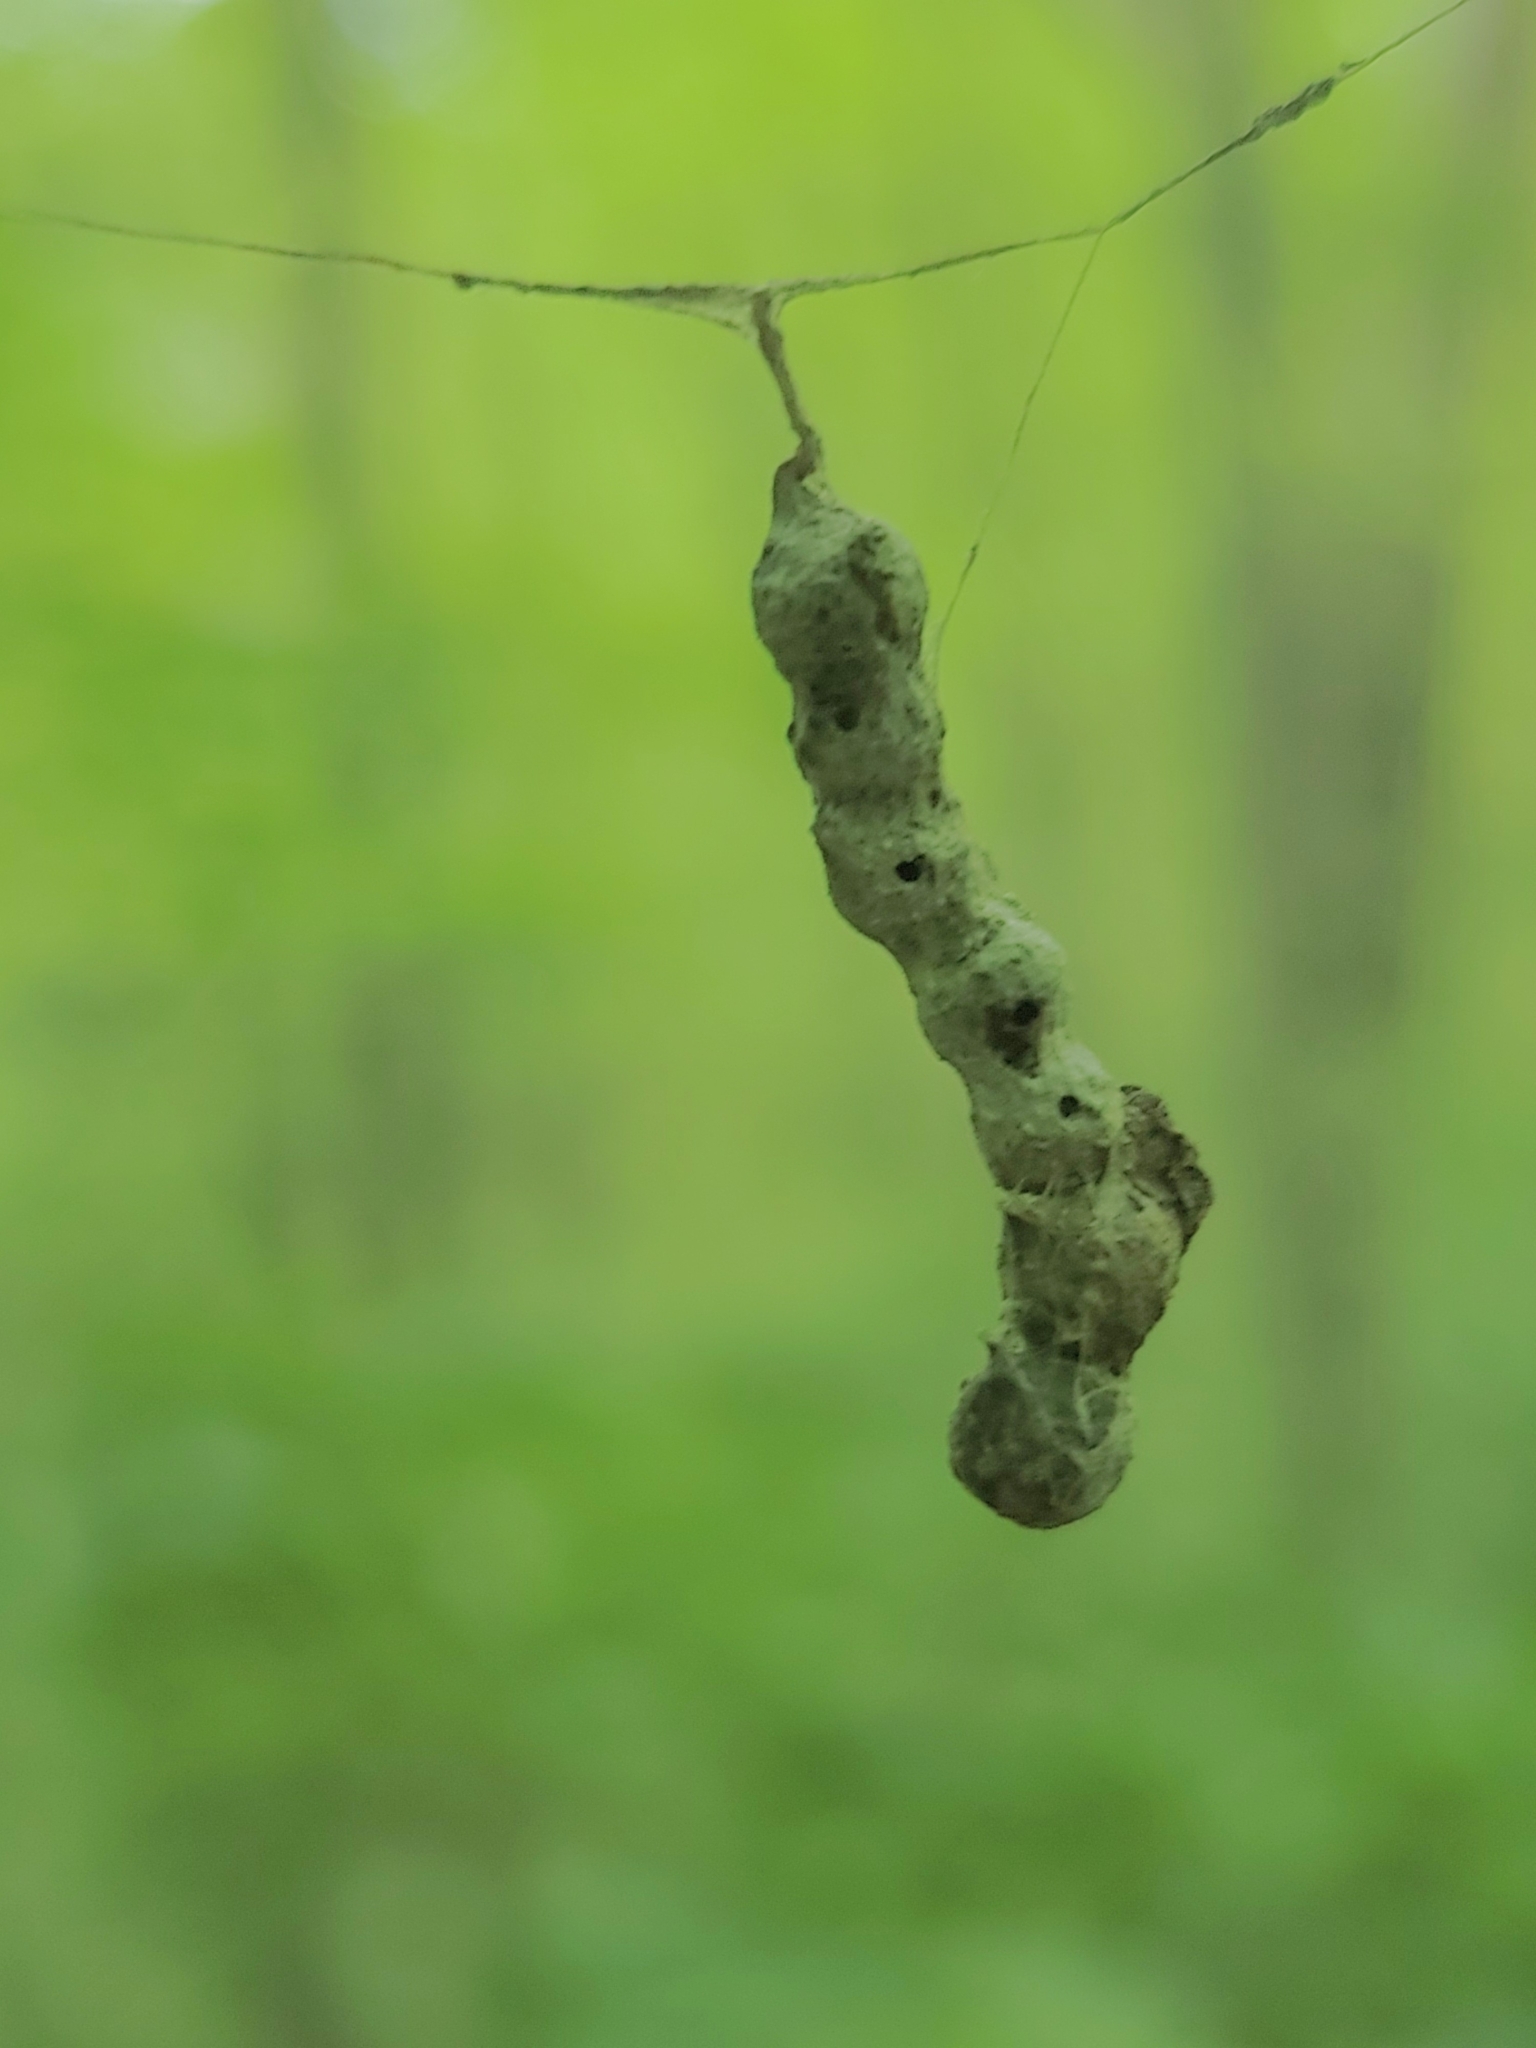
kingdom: Animalia
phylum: Arthropoda
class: Arachnida
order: Araneae
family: Araneidae
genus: Mecynogea
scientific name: Mecynogea lemniscata
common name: Orb weavers
